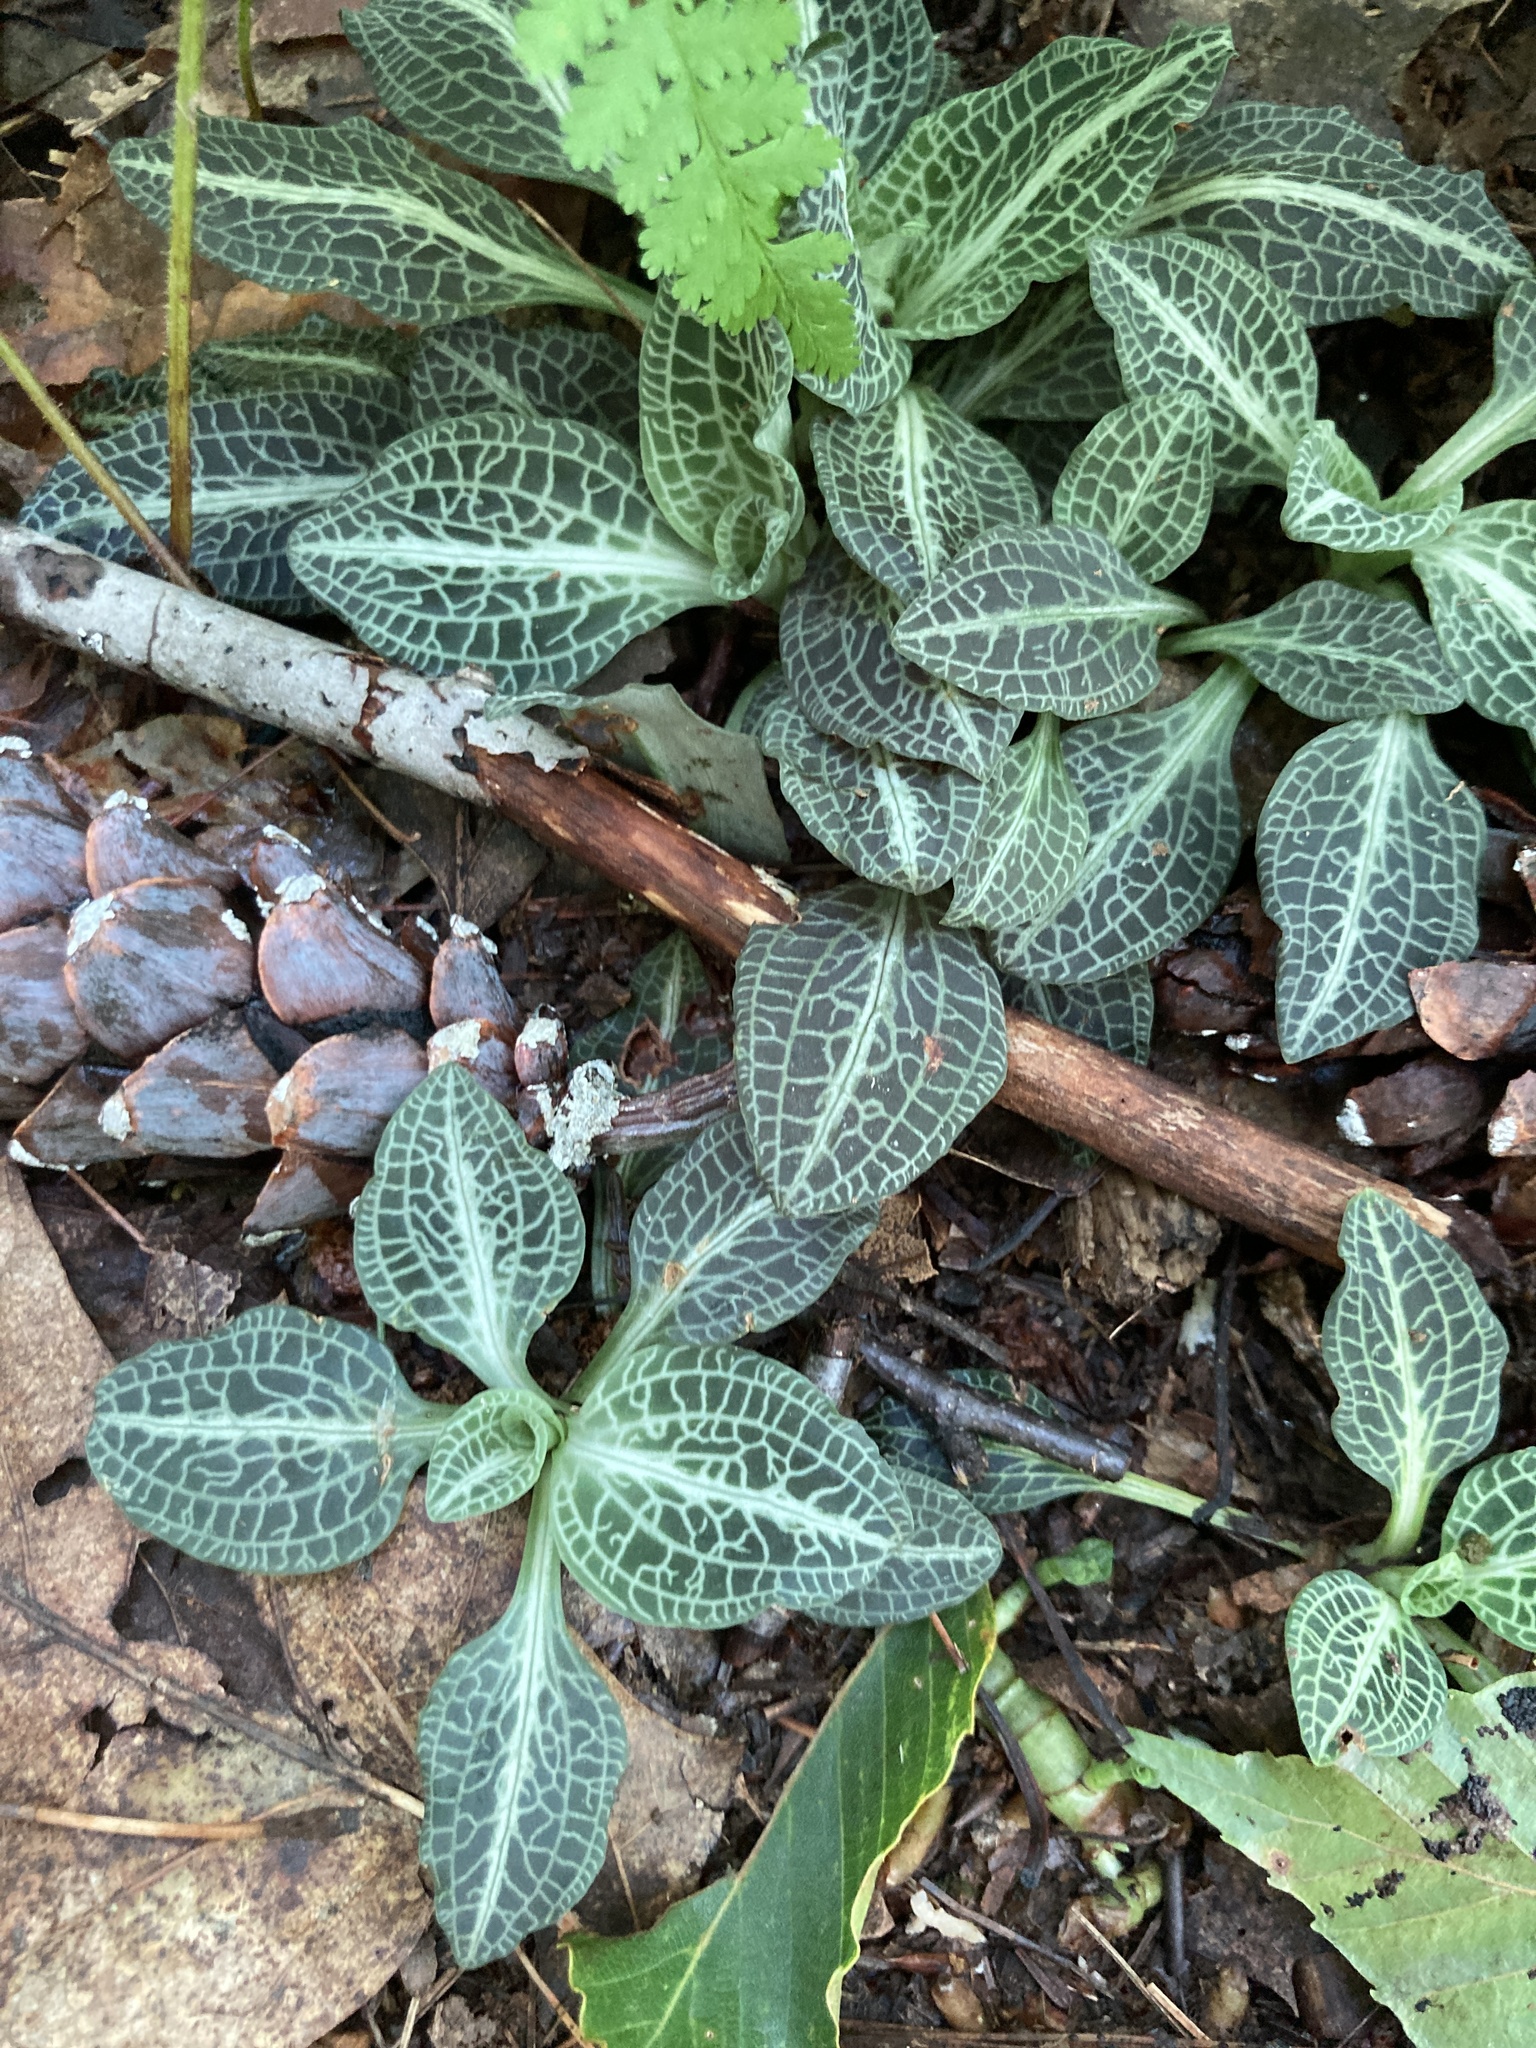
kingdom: Plantae
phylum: Tracheophyta
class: Liliopsida
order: Asparagales
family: Orchidaceae
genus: Goodyera
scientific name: Goodyera pubescens
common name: Downy rattlesnake-plantain
